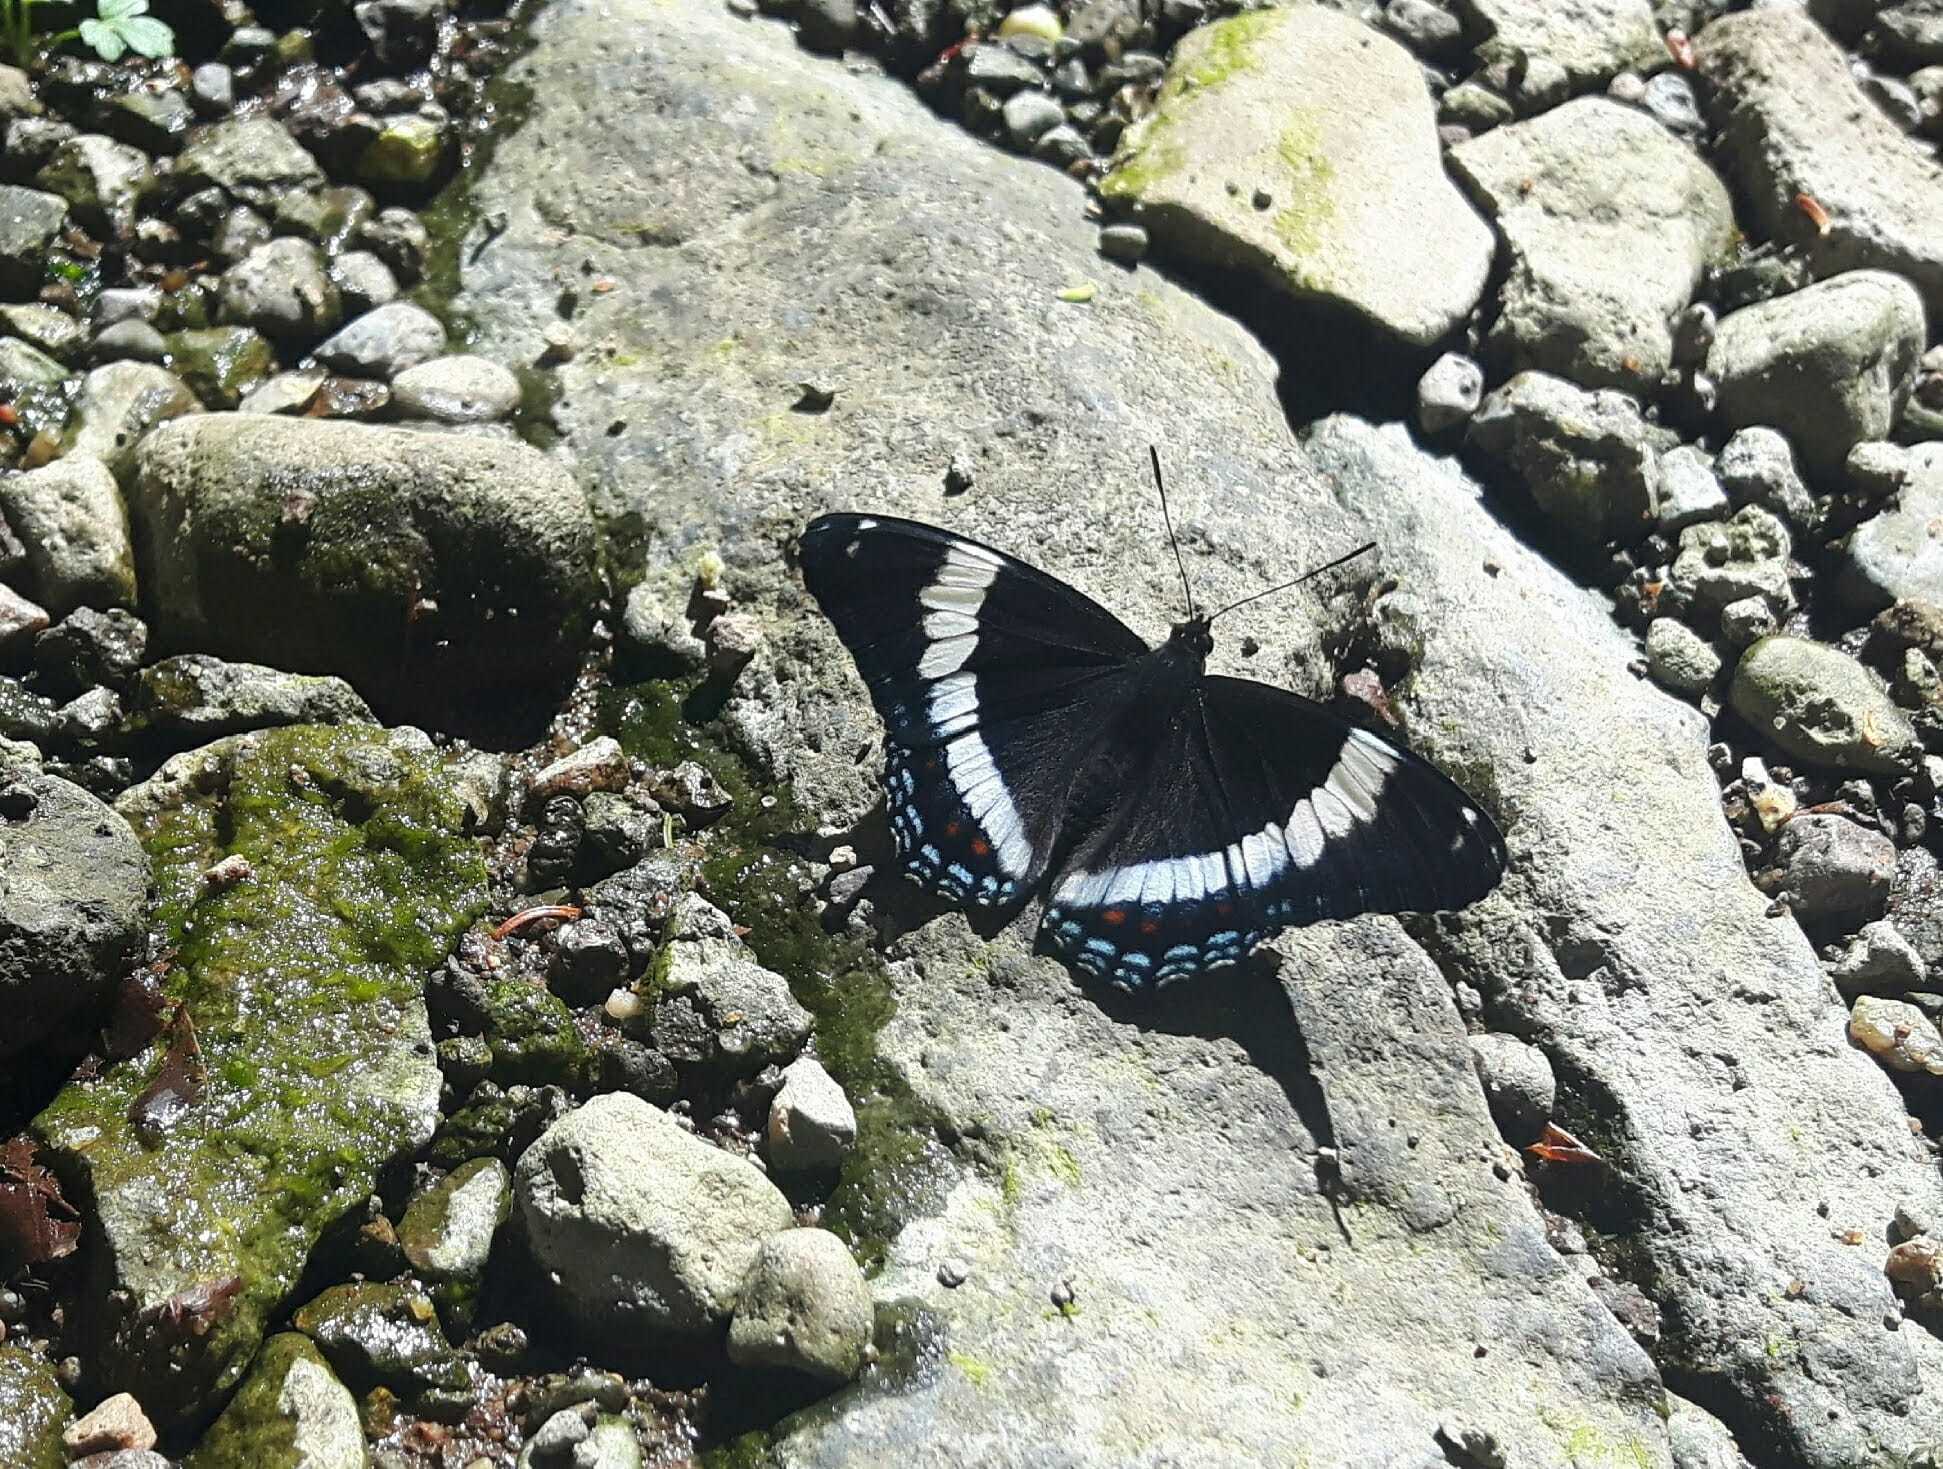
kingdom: Animalia
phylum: Arthropoda
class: Insecta
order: Lepidoptera
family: Nymphalidae
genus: Limenitis
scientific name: Limenitis arthemis
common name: Red-spotted admiral
